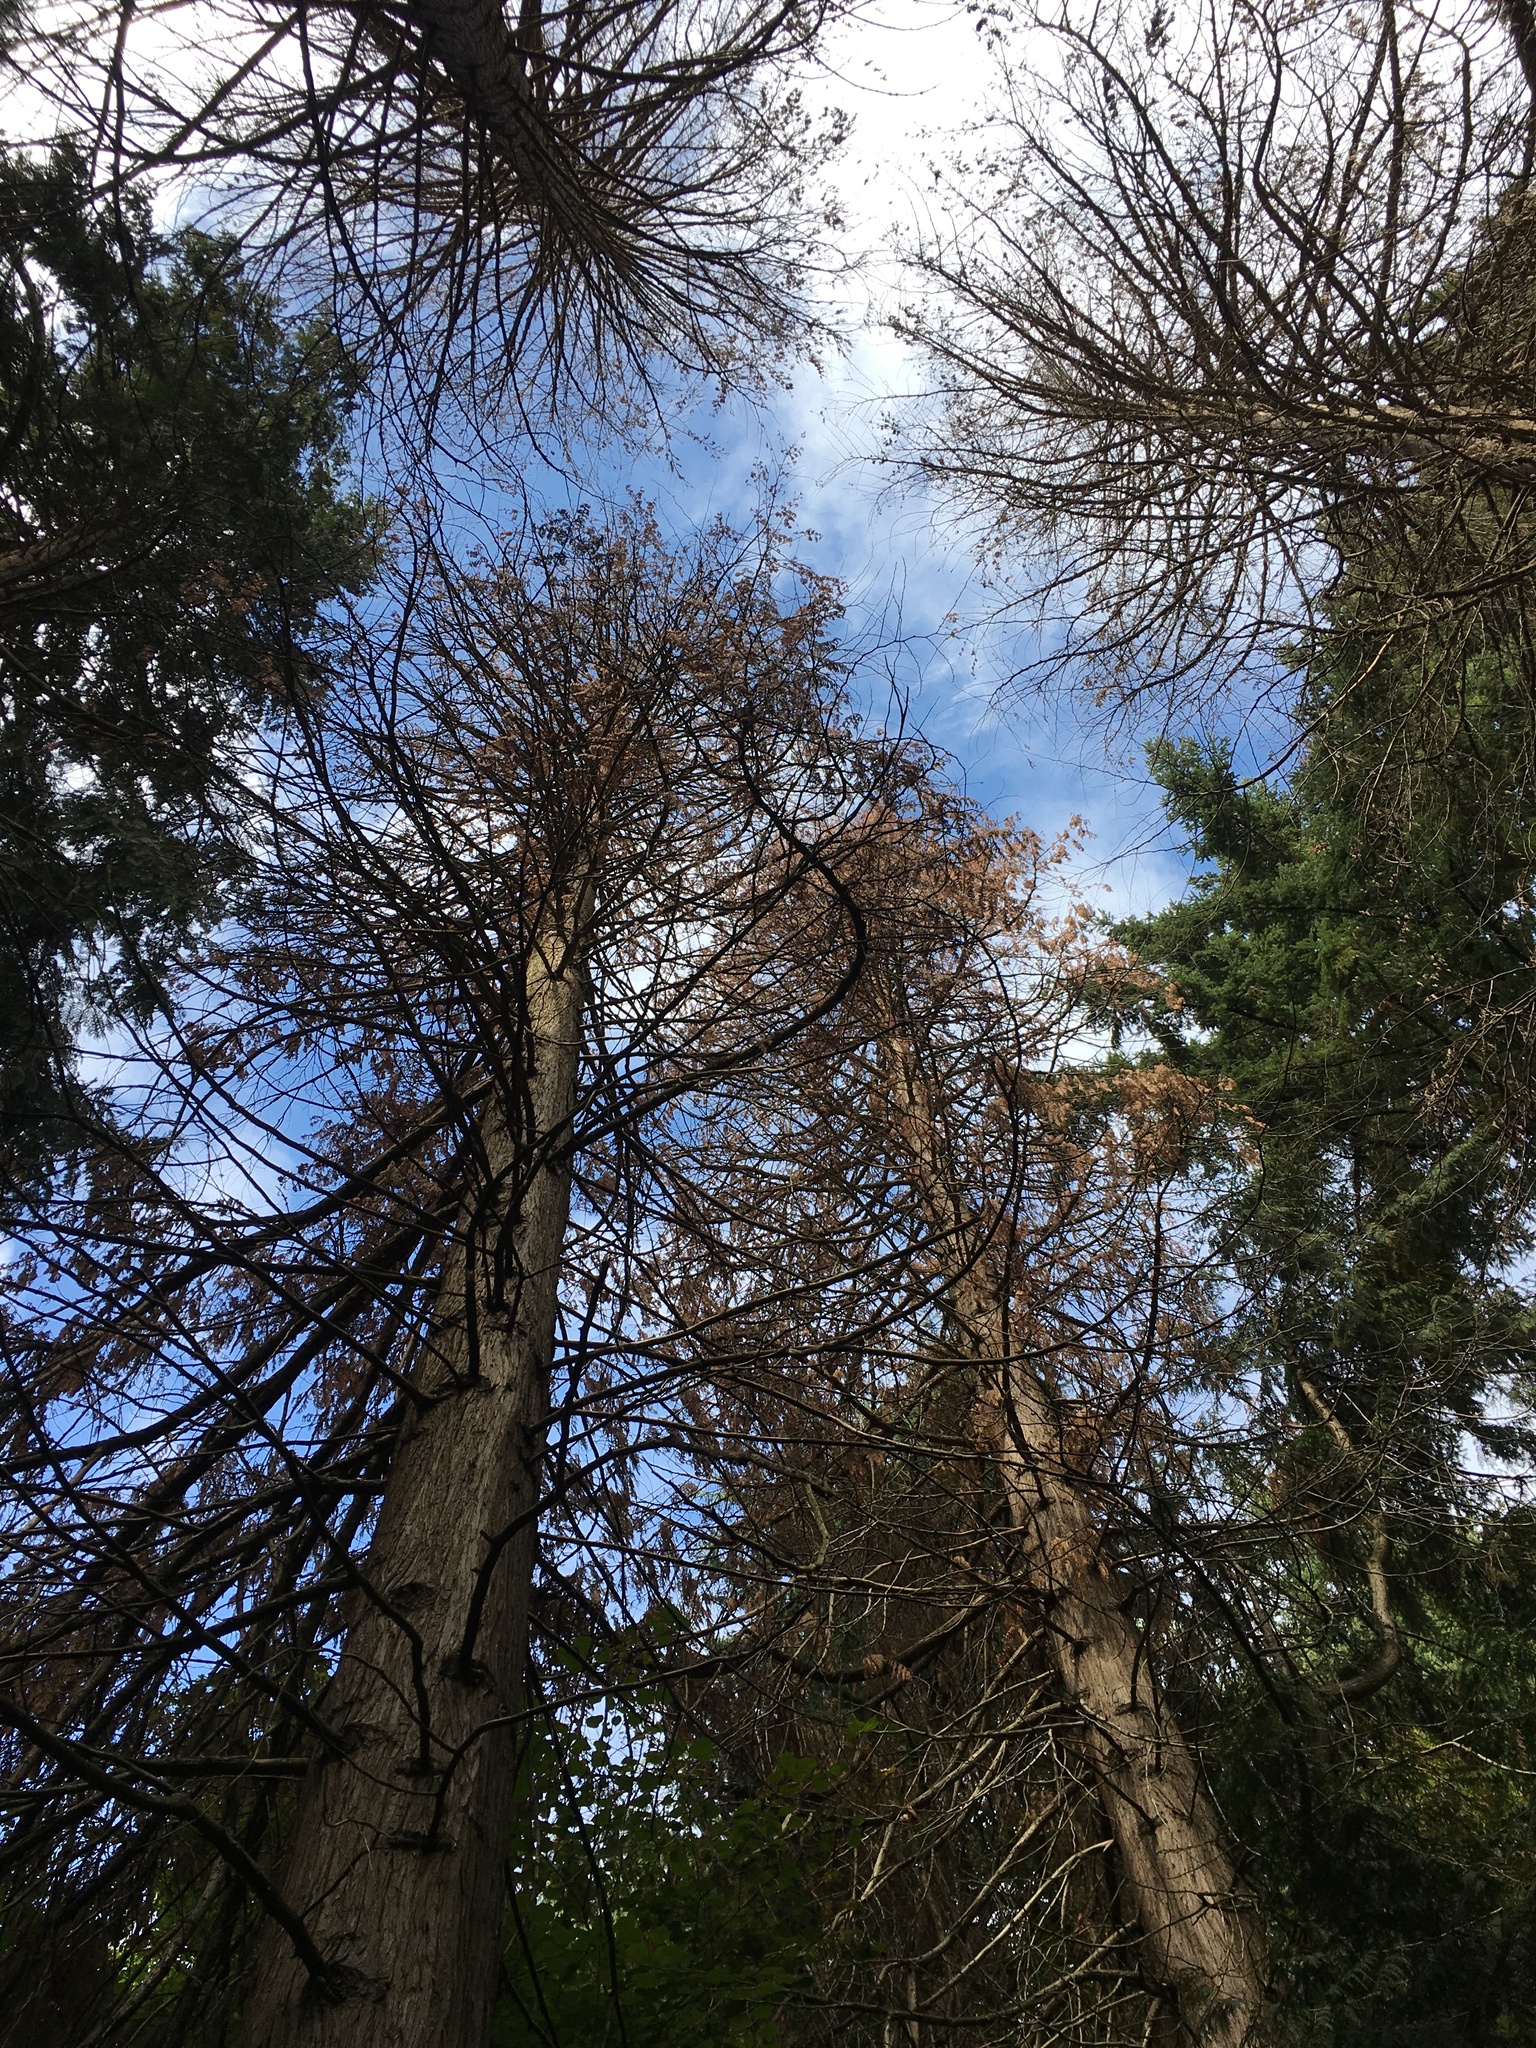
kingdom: Plantae
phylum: Tracheophyta
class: Pinopsida
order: Pinales
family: Cupressaceae
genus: Thuja
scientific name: Thuja plicata
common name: Western red-cedar
